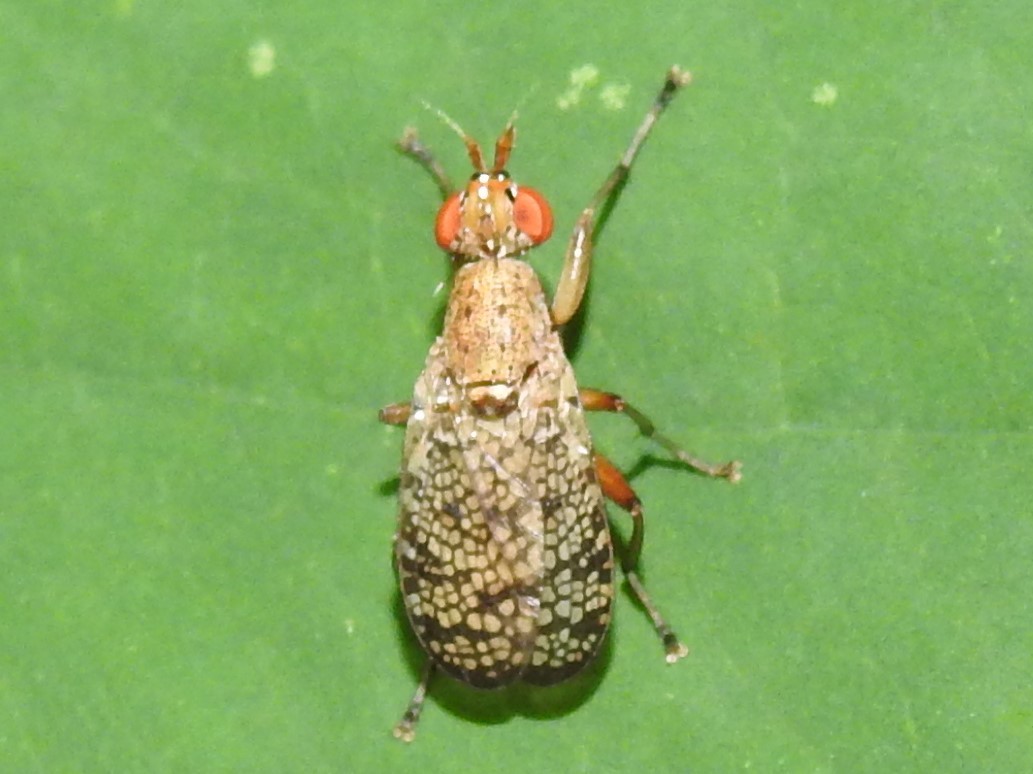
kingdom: Animalia
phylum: Arthropoda
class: Insecta
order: Diptera
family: Sciomyzidae
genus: Euthycera
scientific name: Euthycera flavescens
